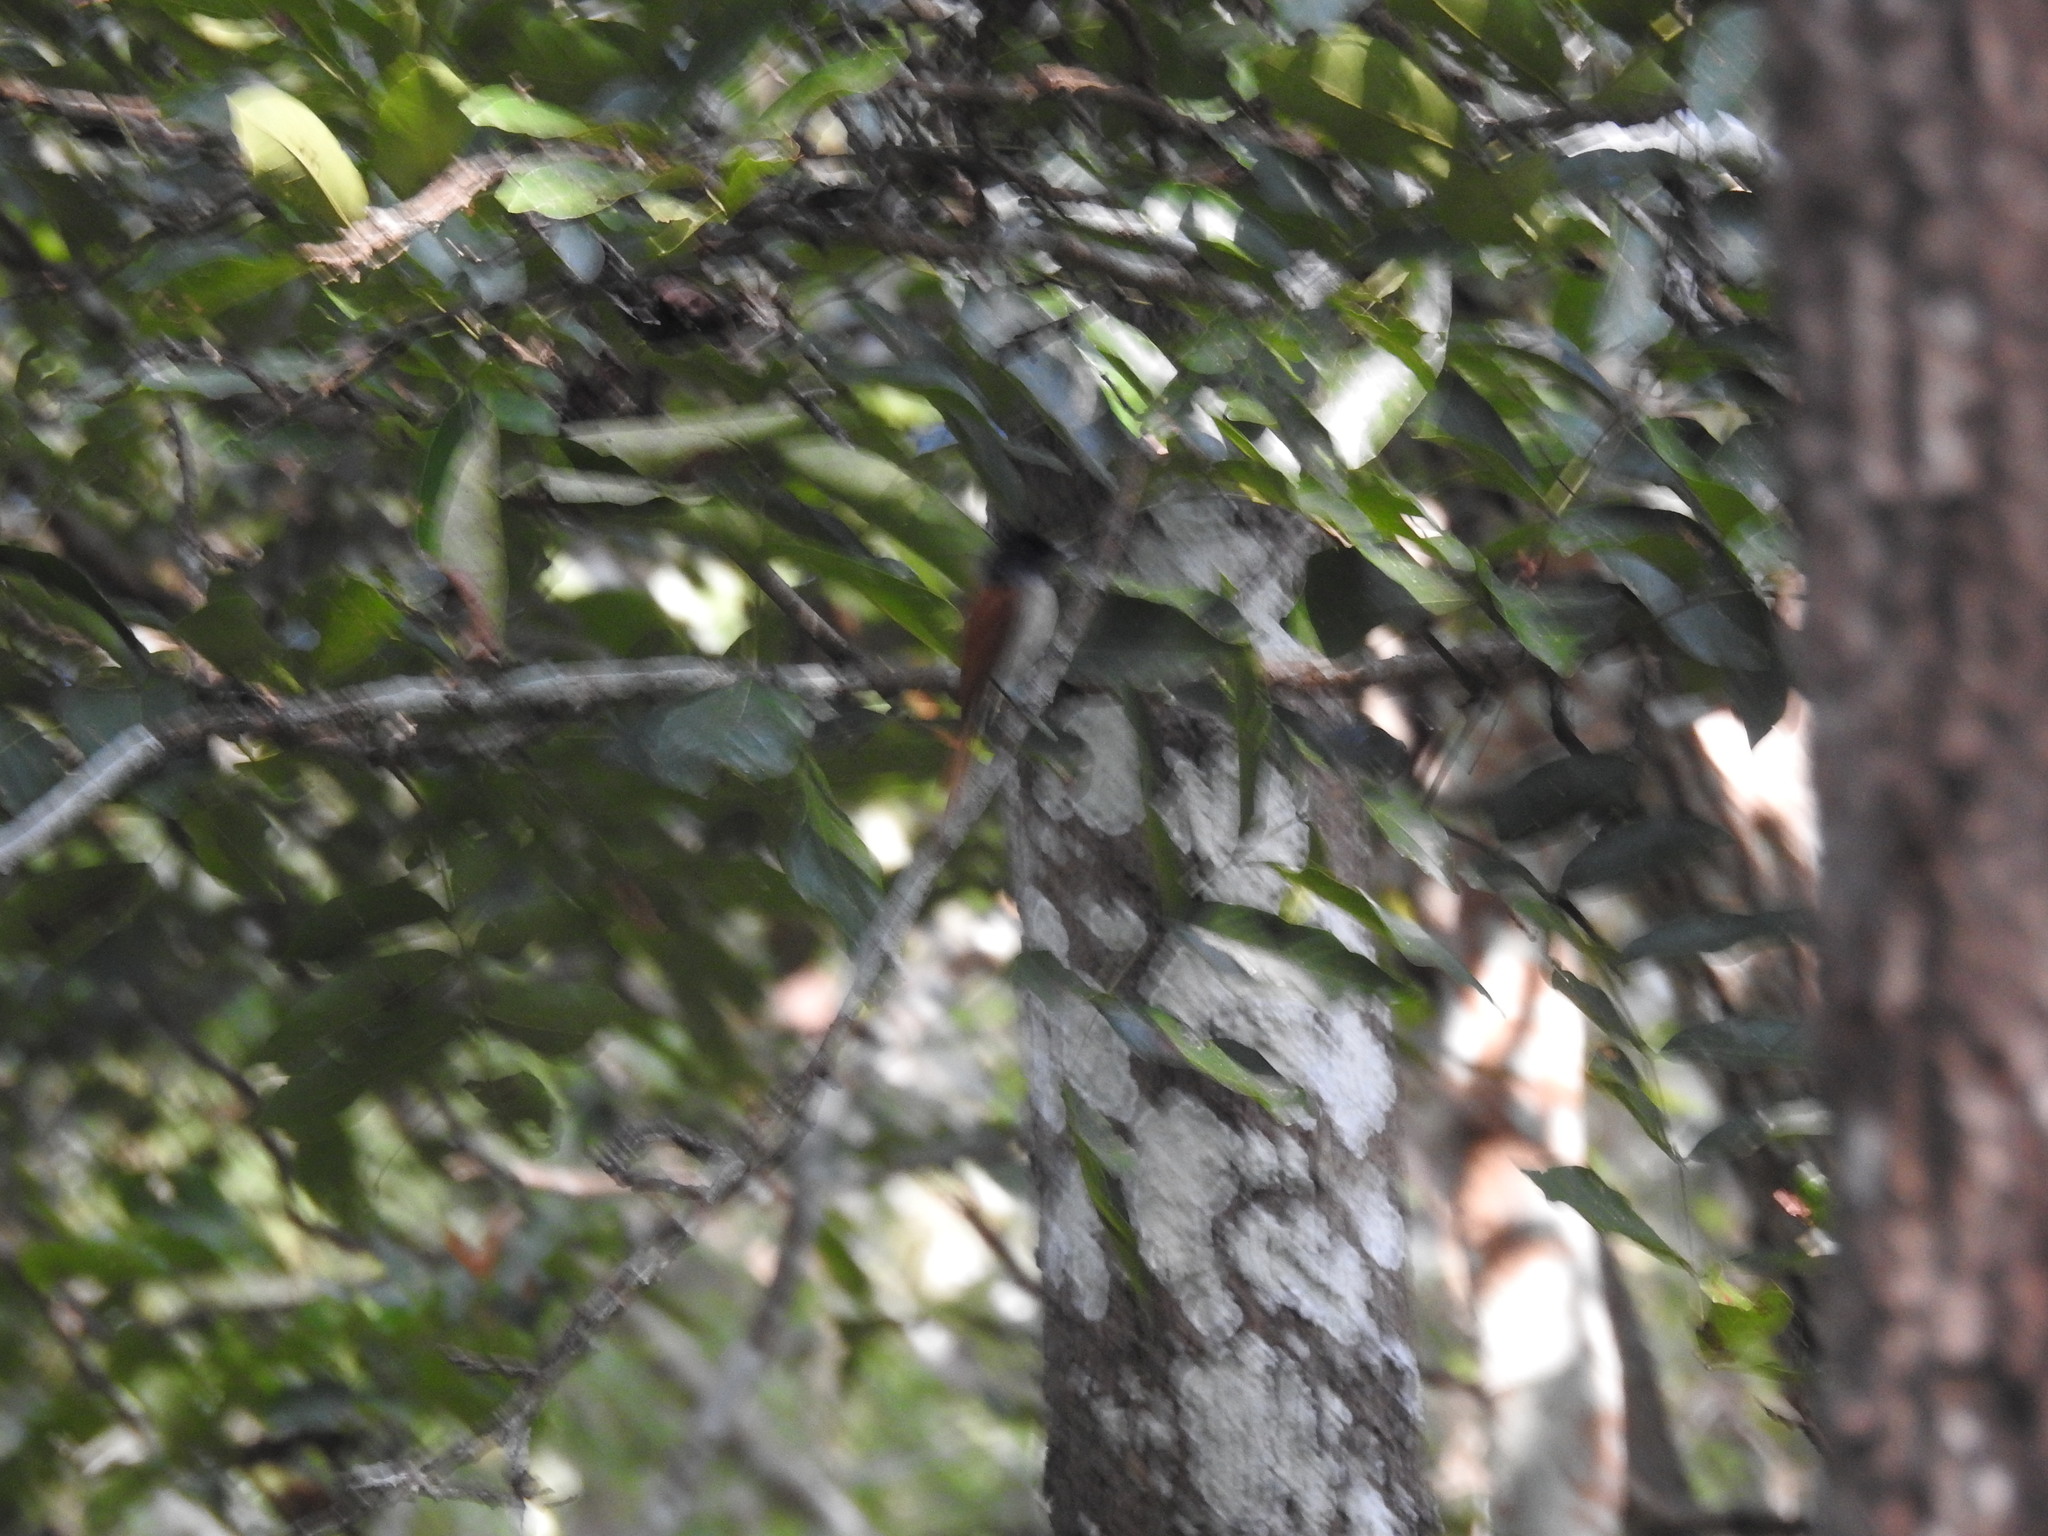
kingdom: Animalia
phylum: Chordata
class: Aves
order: Passeriformes
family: Monarchidae
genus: Terpsiphone
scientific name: Terpsiphone paradisi
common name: Indian paradise flycatcher
